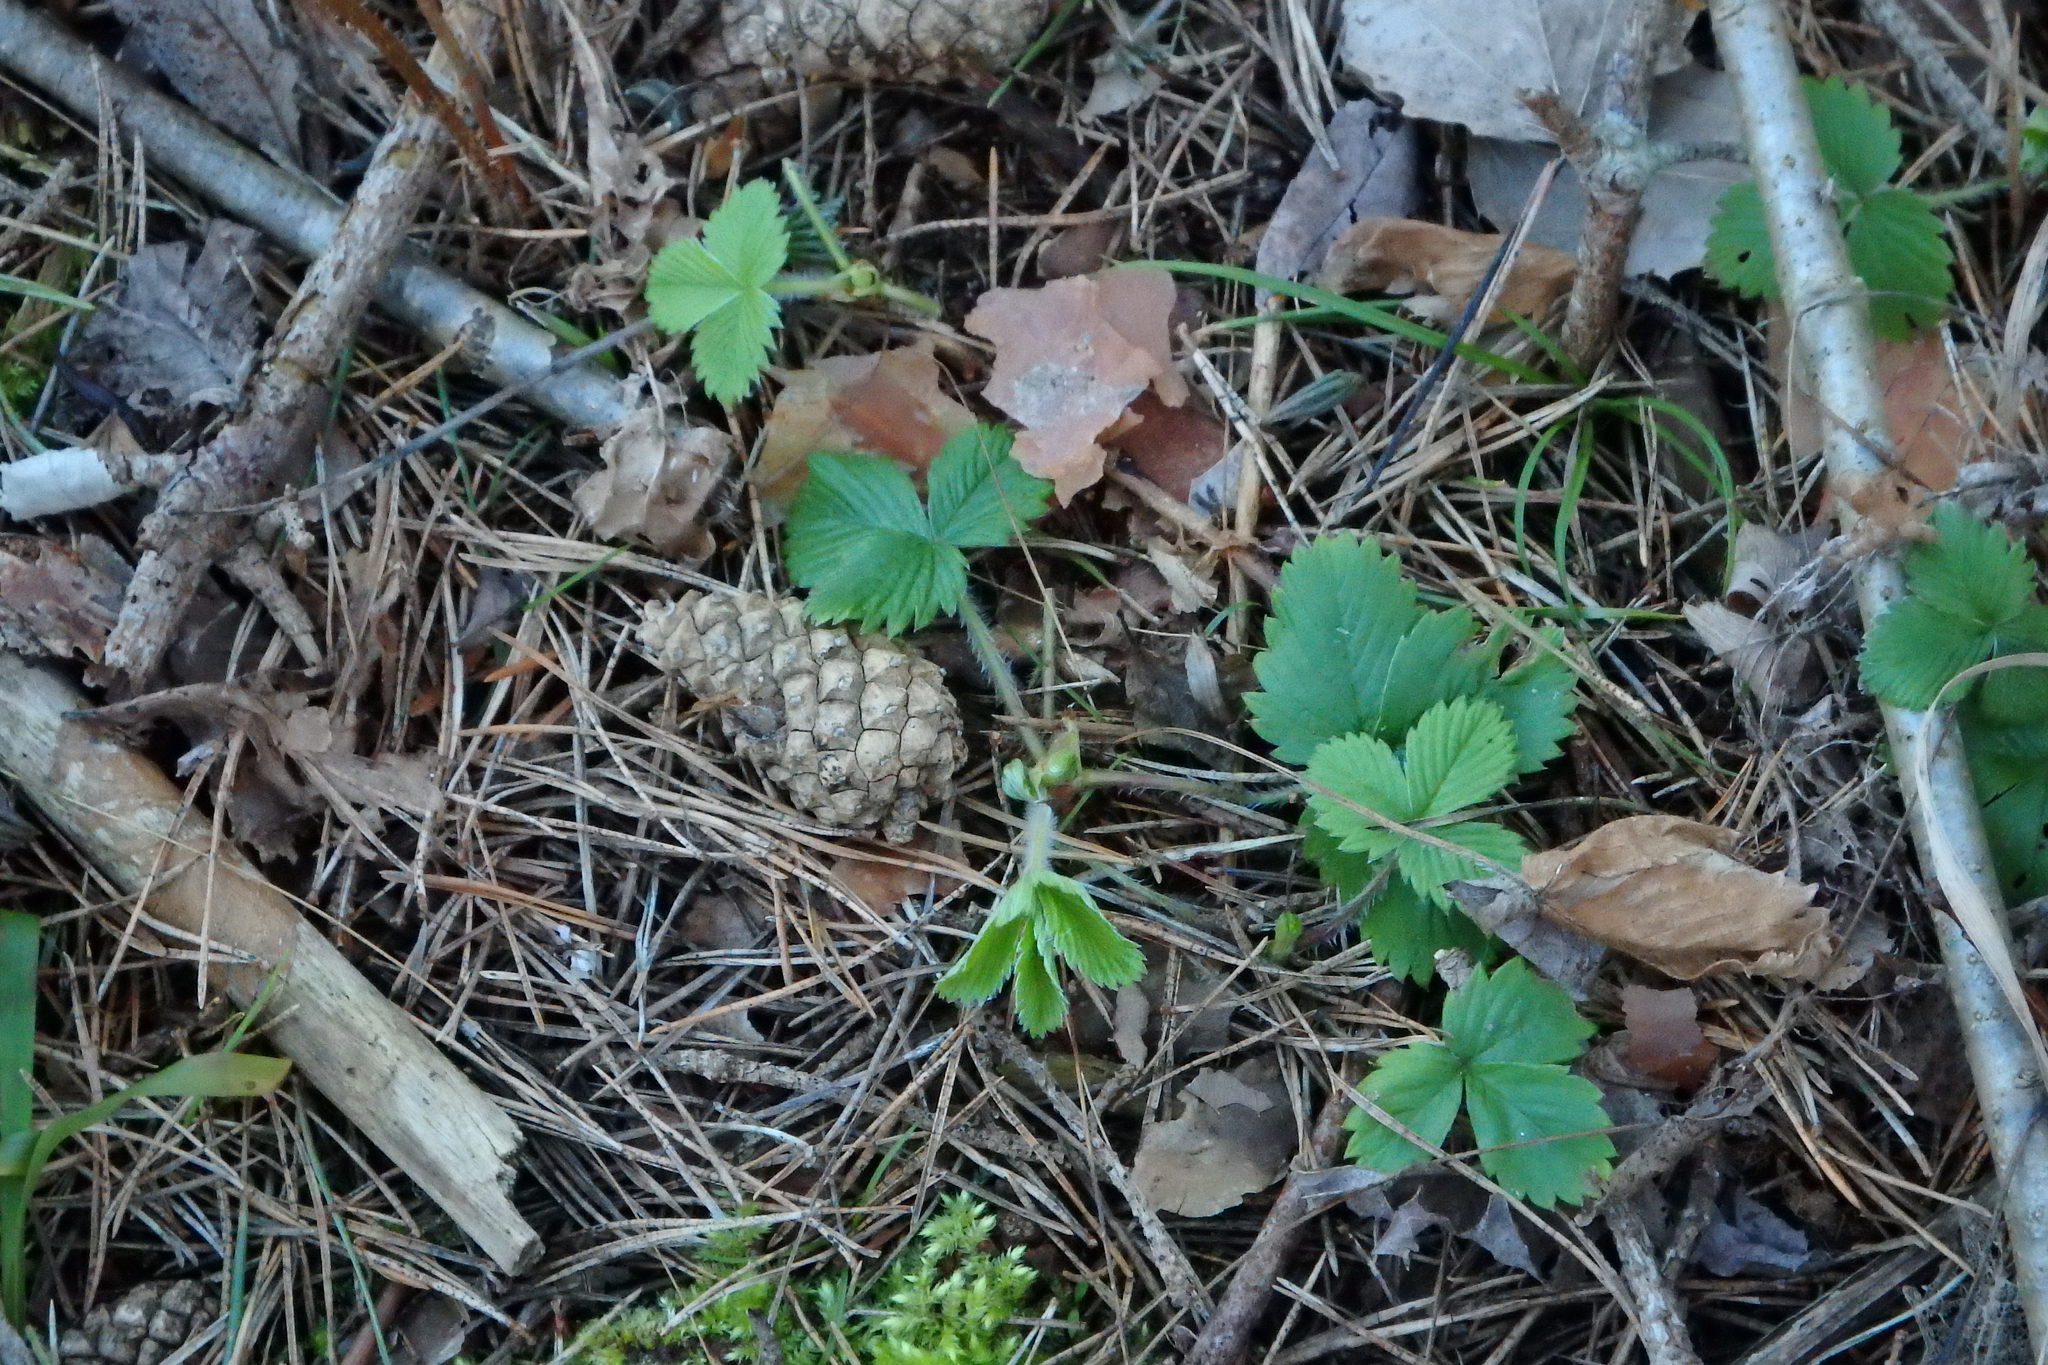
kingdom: Plantae
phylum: Tracheophyta
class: Magnoliopsida
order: Rosales
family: Rosaceae
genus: Fragaria
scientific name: Fragaria vesca
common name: Wild strawberry
